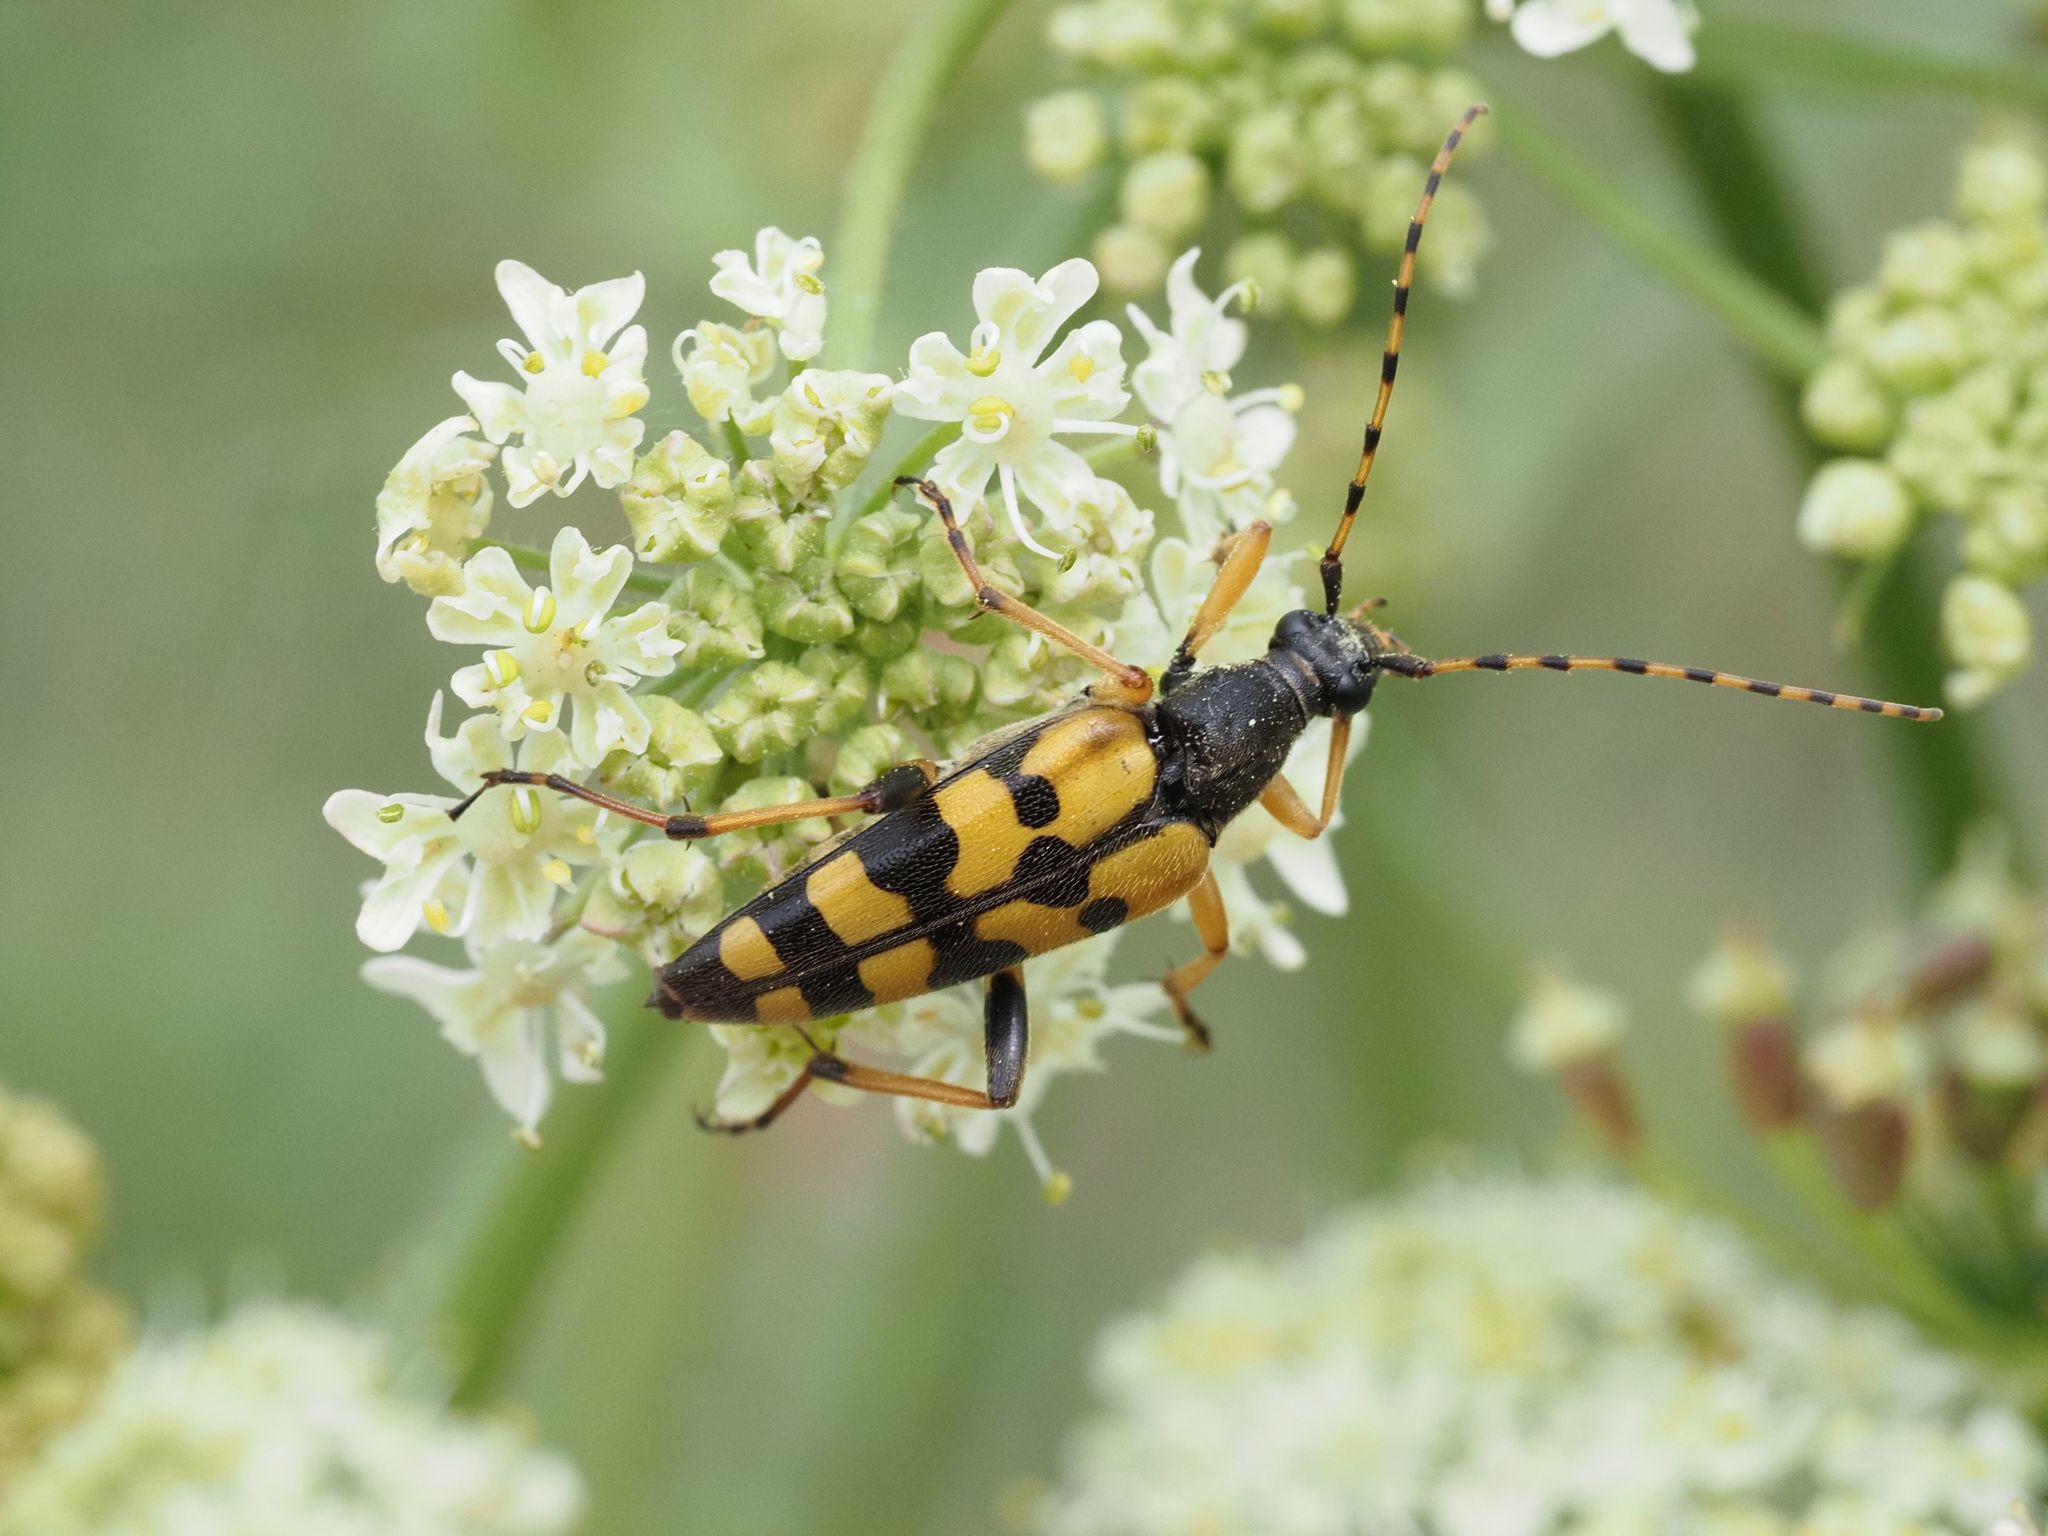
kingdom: Animalia
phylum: Arthropoda
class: Insecta
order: Coleoptera
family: Cerambycidae
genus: Rutpela
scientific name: Rutpela maculata
